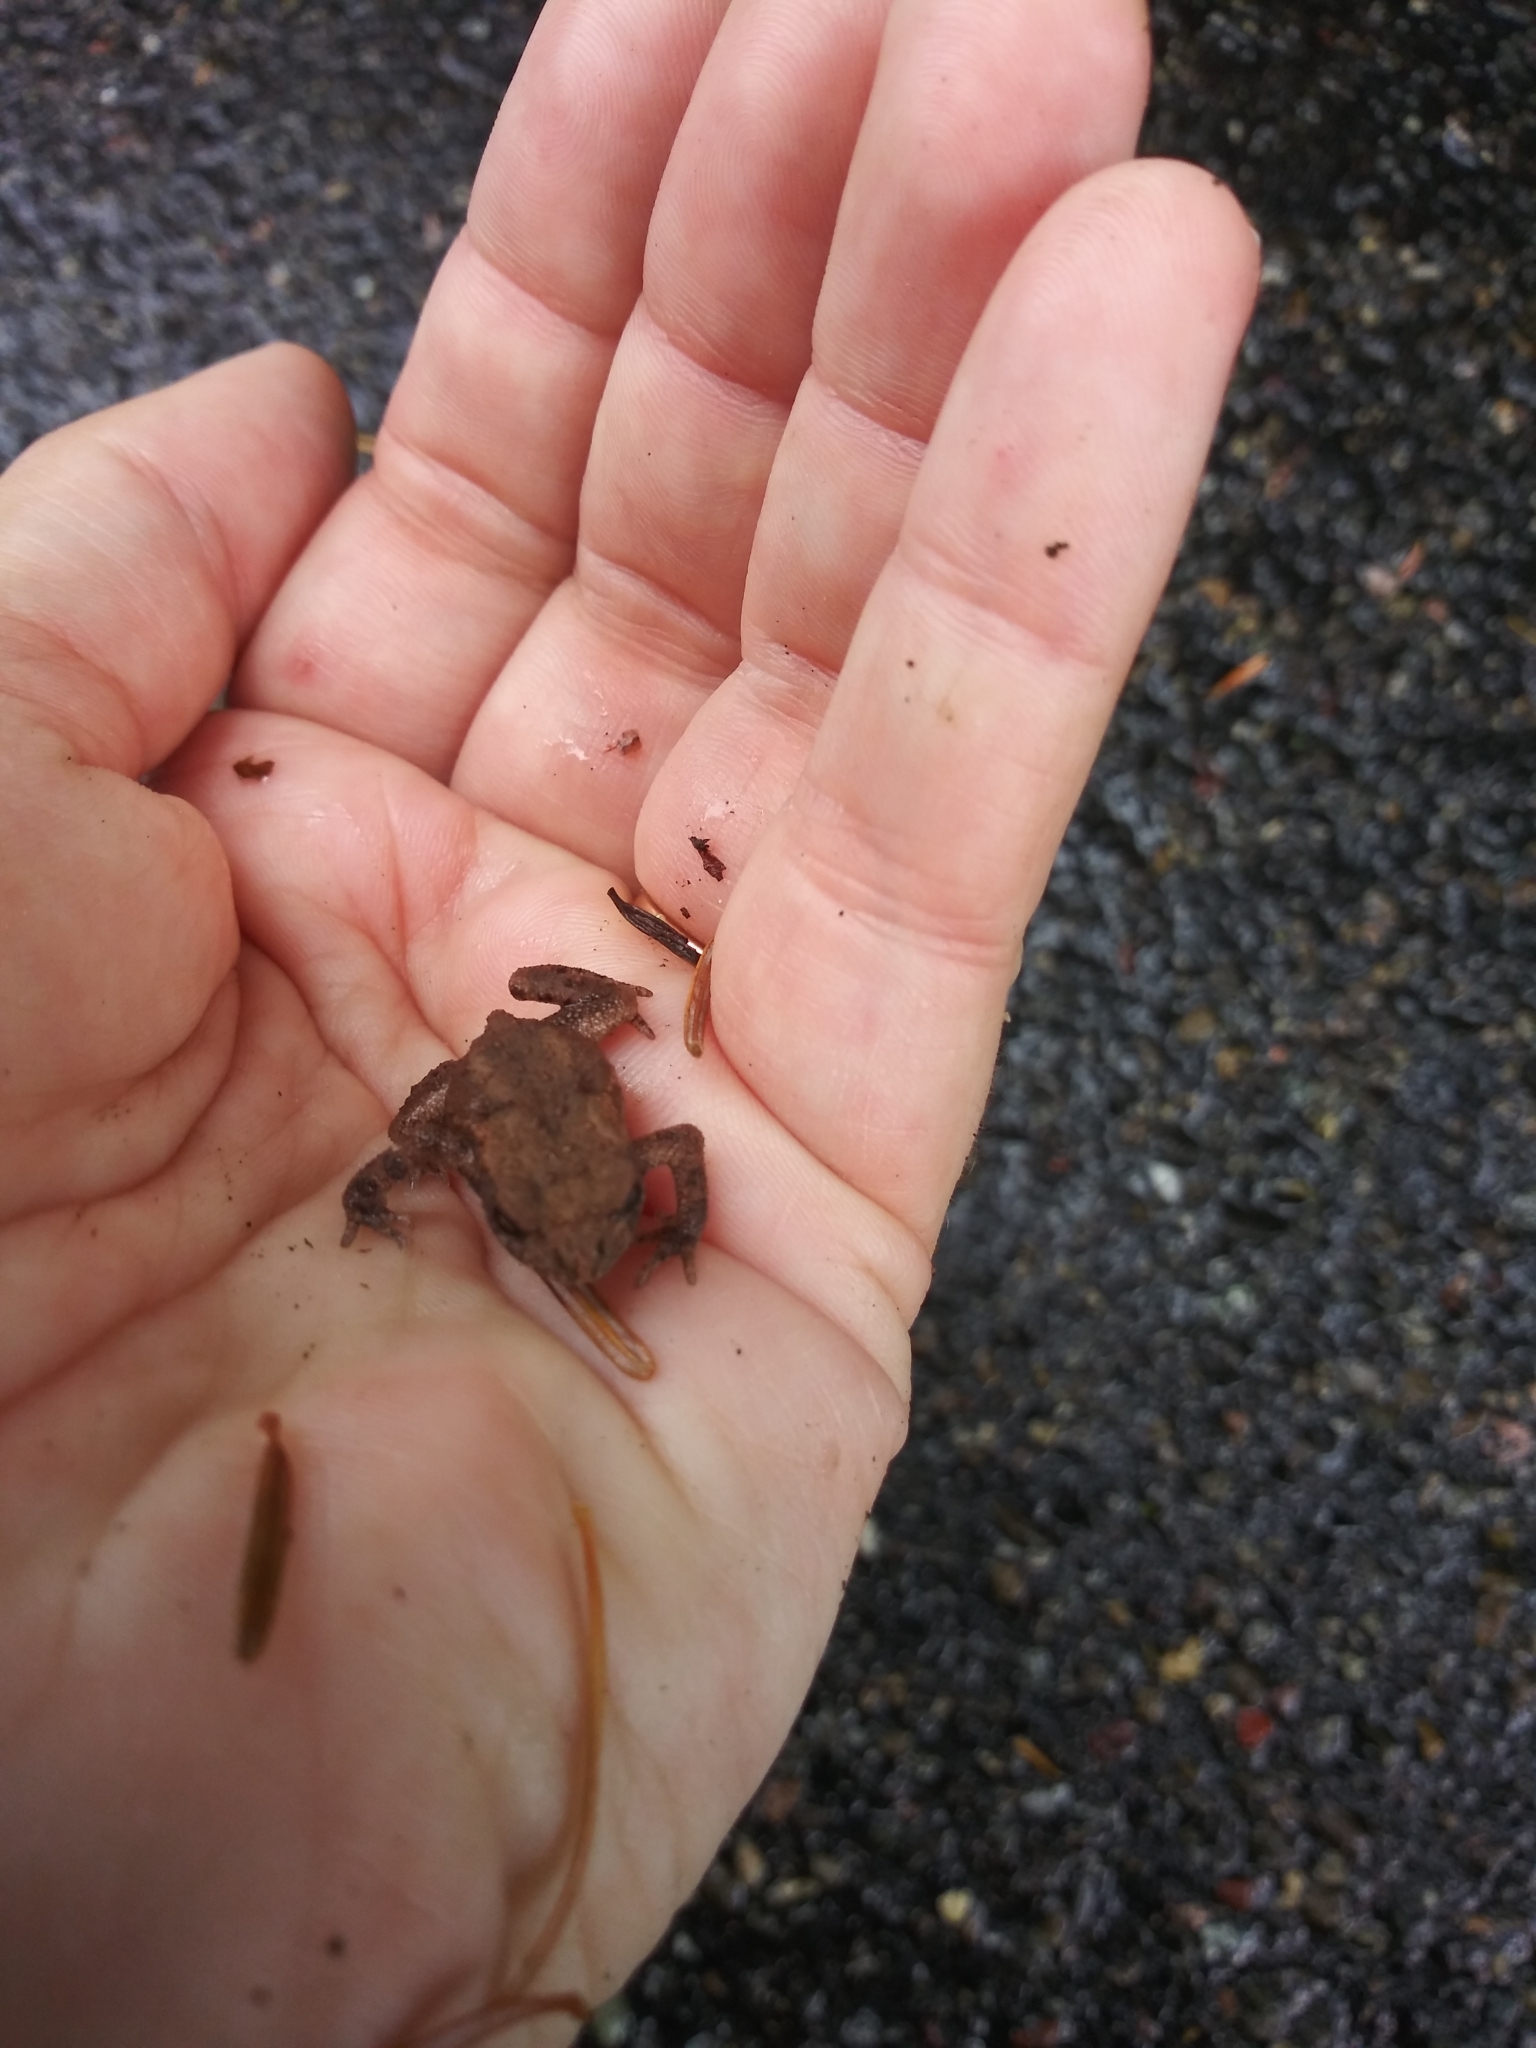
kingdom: Animalia
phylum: Chordata
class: Amphibia
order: Anura
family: Bufonidae
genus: Bufo
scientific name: Bufo bufo
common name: Common toad
